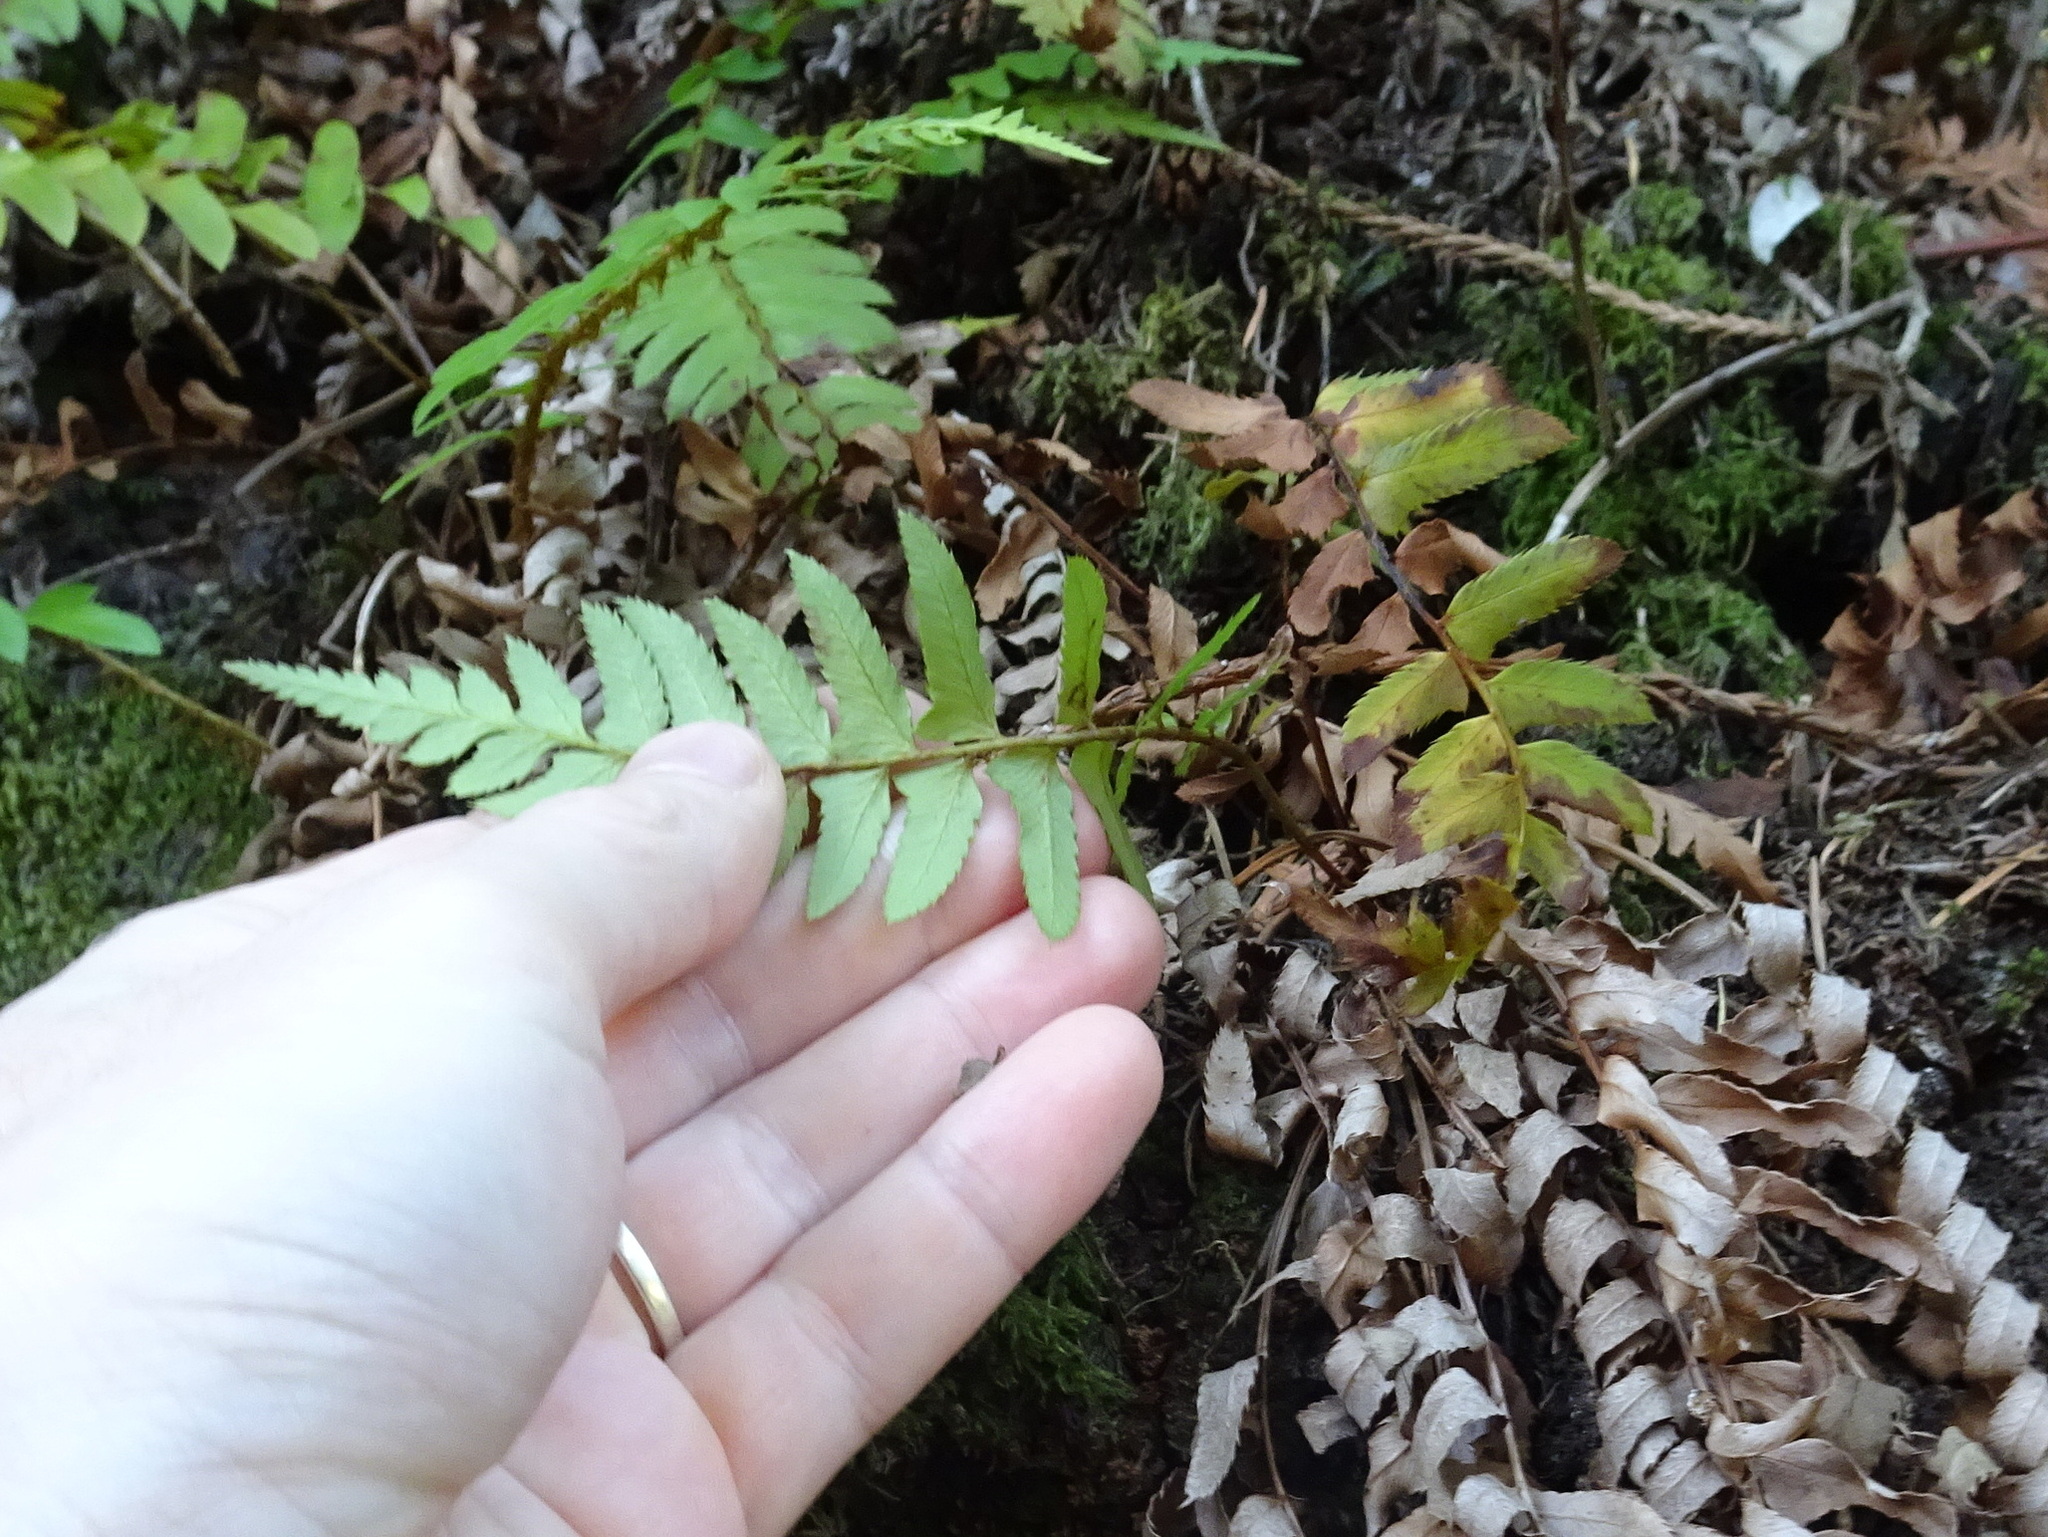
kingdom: Plantae
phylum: Tracheophyta
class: Polypodiopsida
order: Polypodiales
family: Dryopteridaceae
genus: Polystichum
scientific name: Polystichum munitum
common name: Western sword-fern
